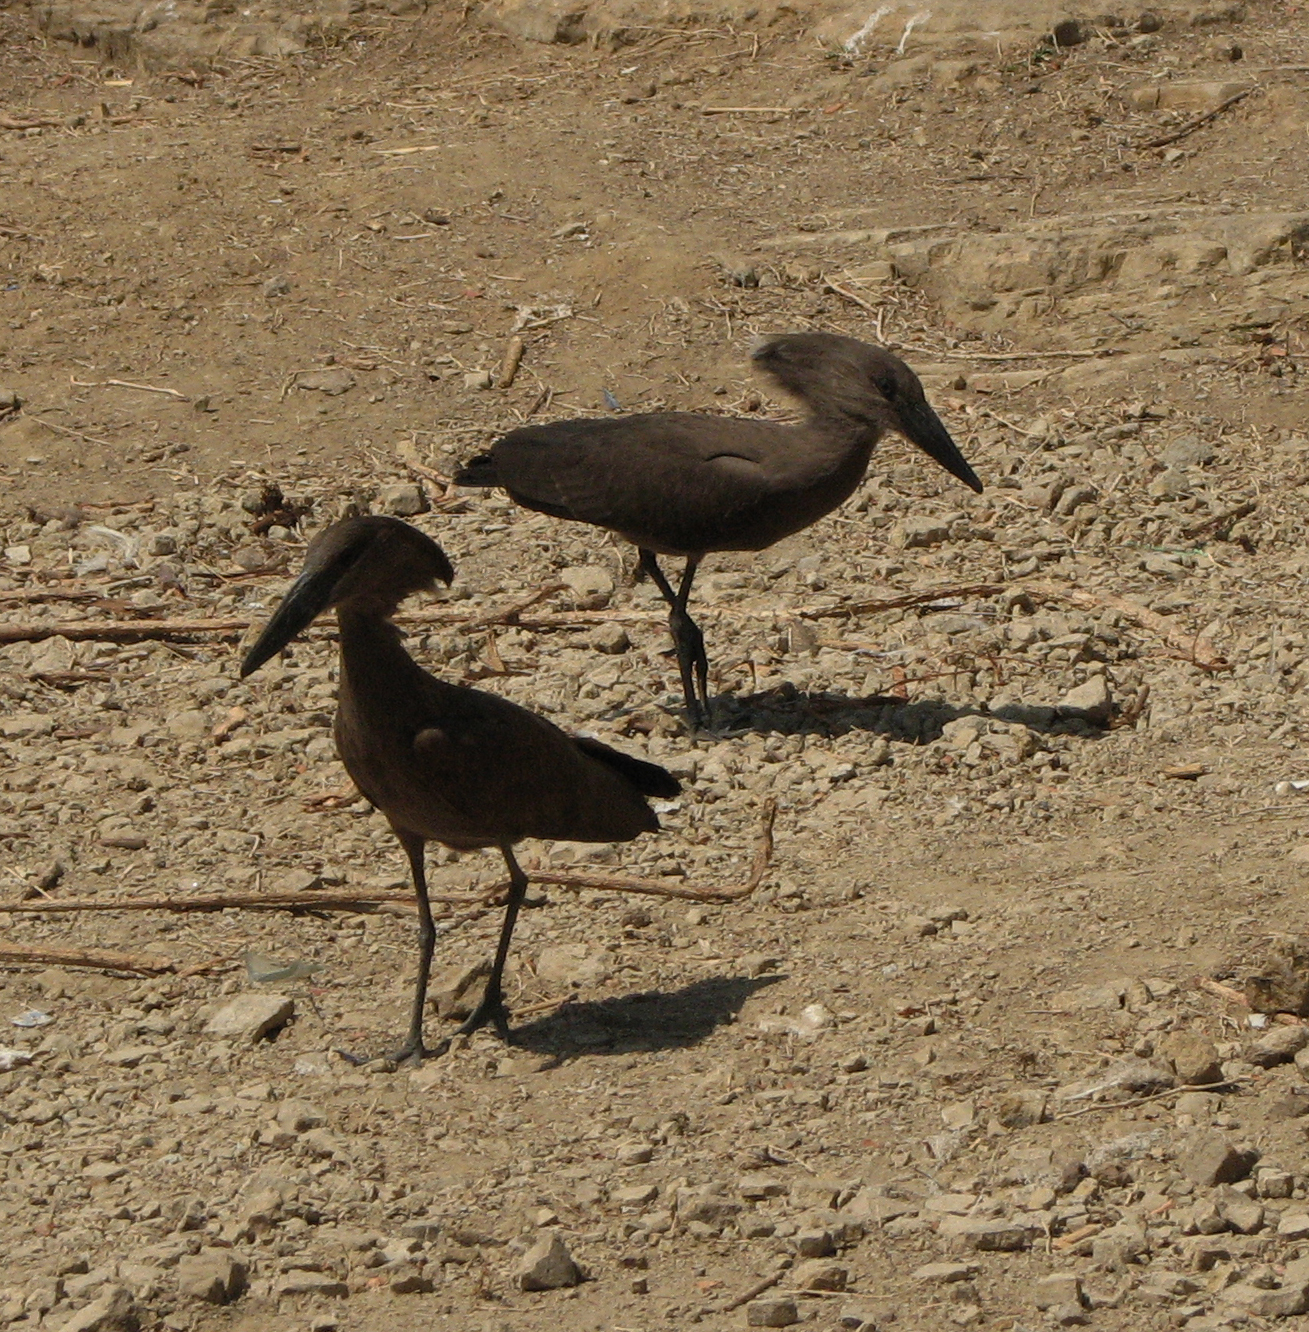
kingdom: Animalia
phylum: Chordata
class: Aves
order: Pelecaniformes
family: Scopidae
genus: Scopus
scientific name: Scopus umbretta
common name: Hamerkop
